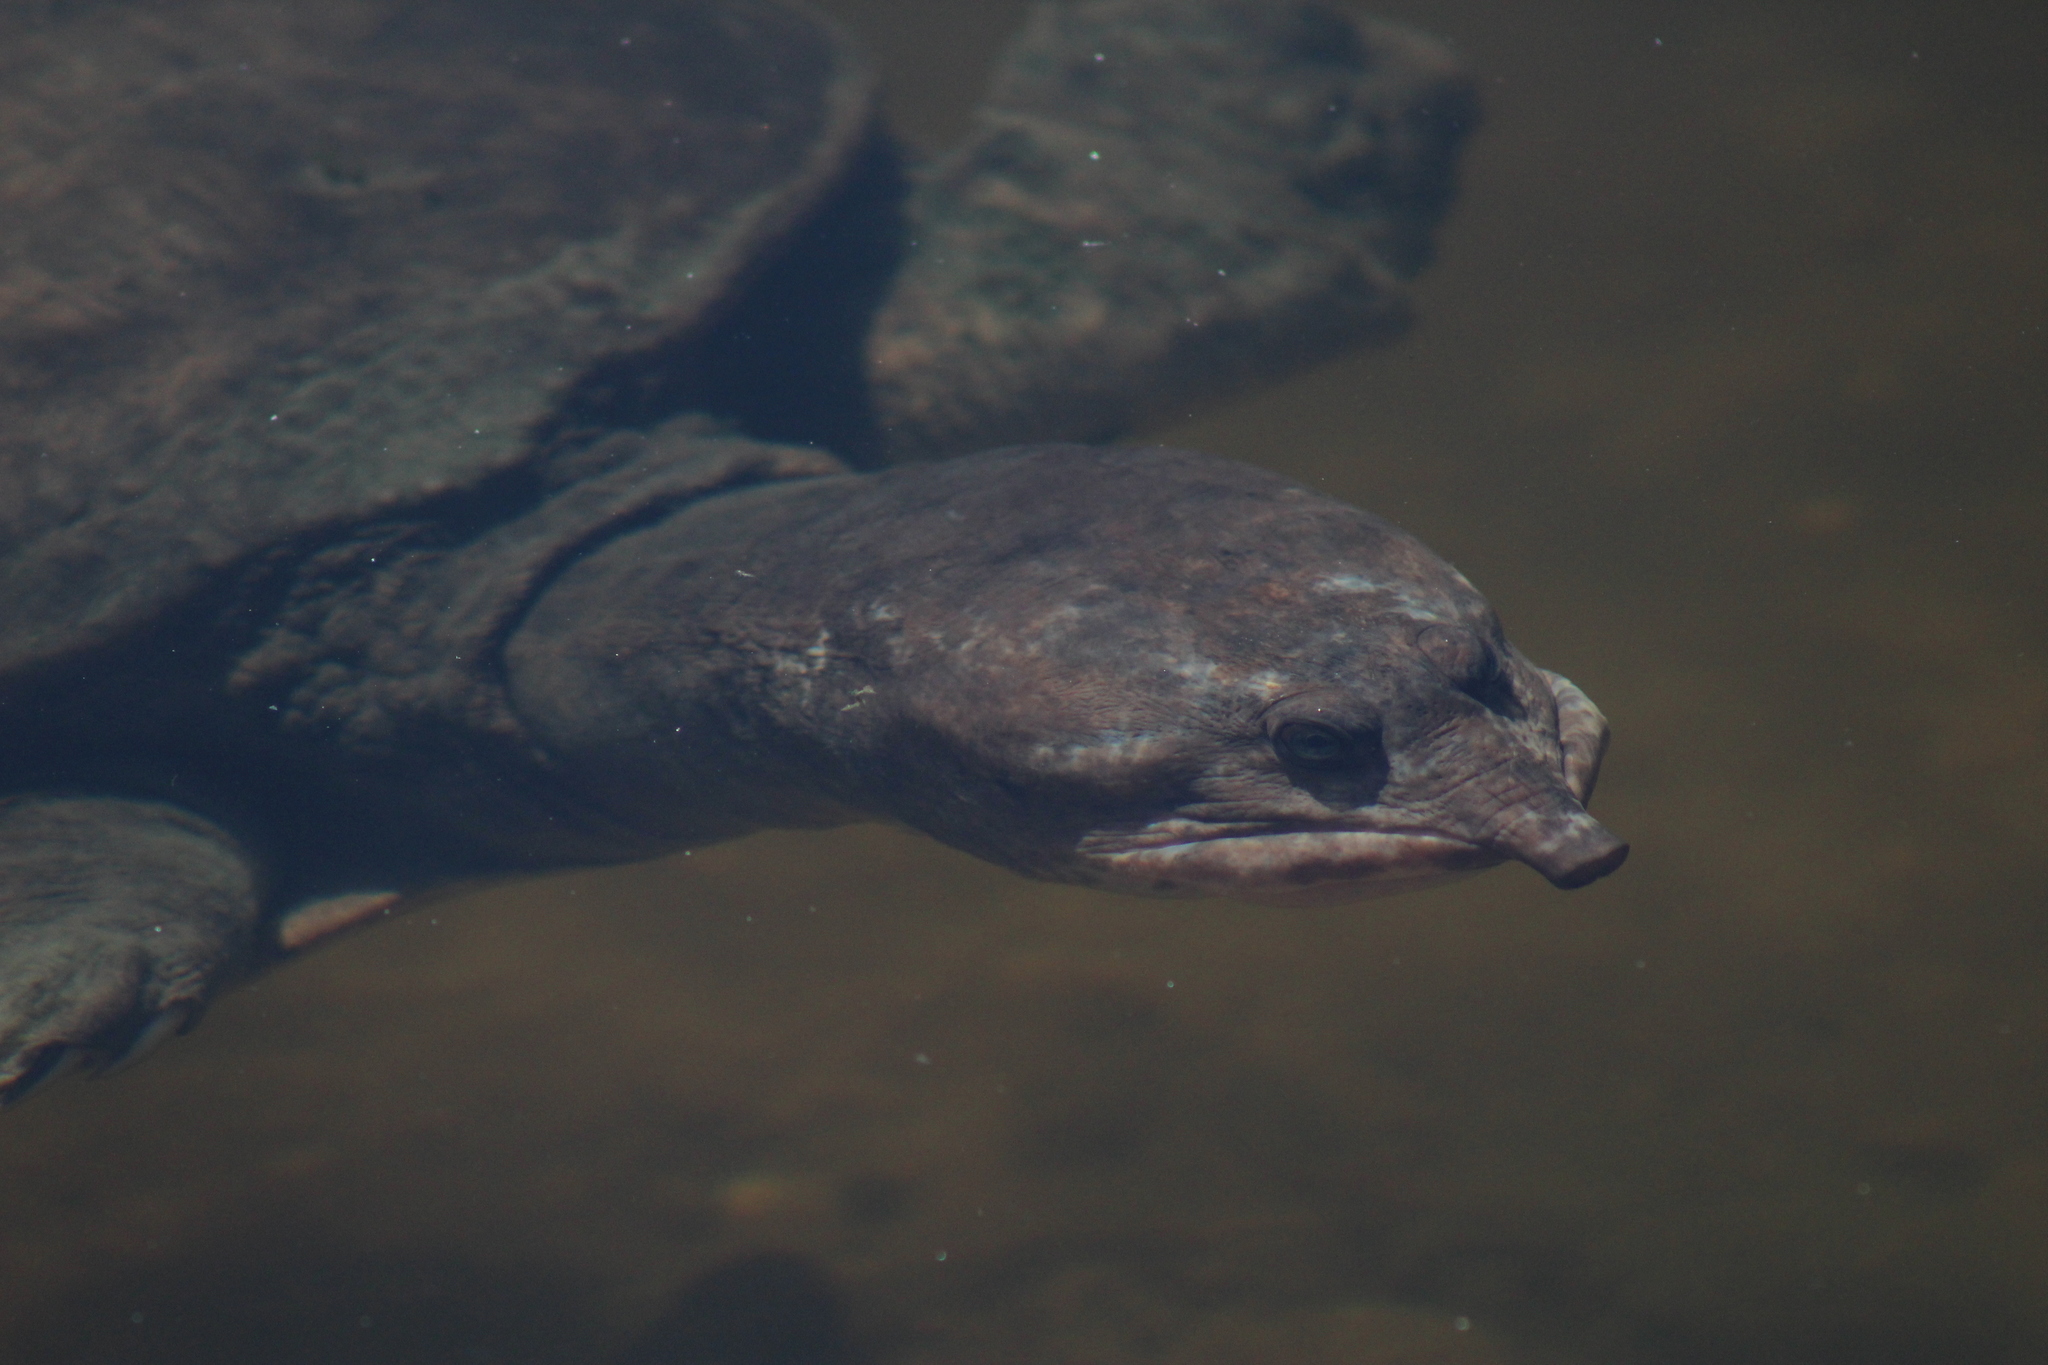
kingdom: Animalia
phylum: Chordata
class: Testudines
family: Trionychidae
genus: Apalone
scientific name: Apalone ferox
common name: Florida softshell turtle
